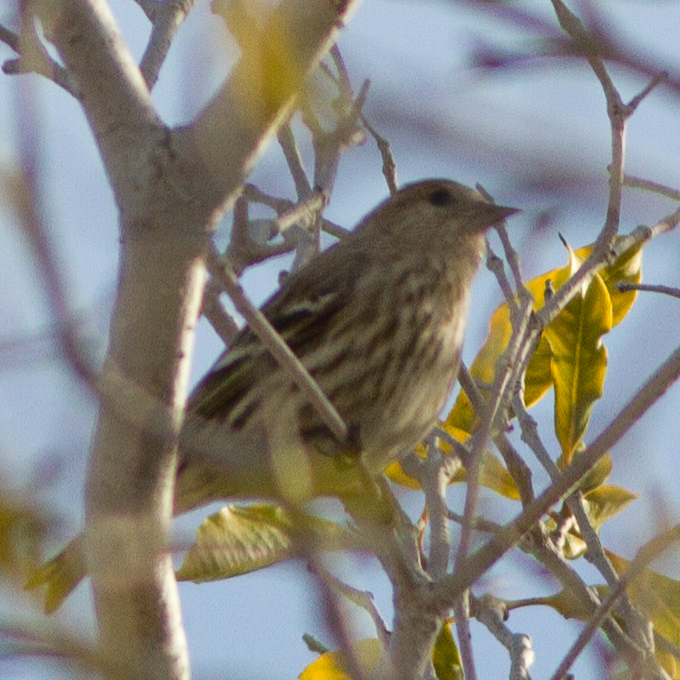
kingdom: Animalia
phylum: Chordata
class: Aves
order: Passeriformes
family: Fringillidae
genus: Spinus
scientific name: Spinus pinus
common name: Pine siskin
